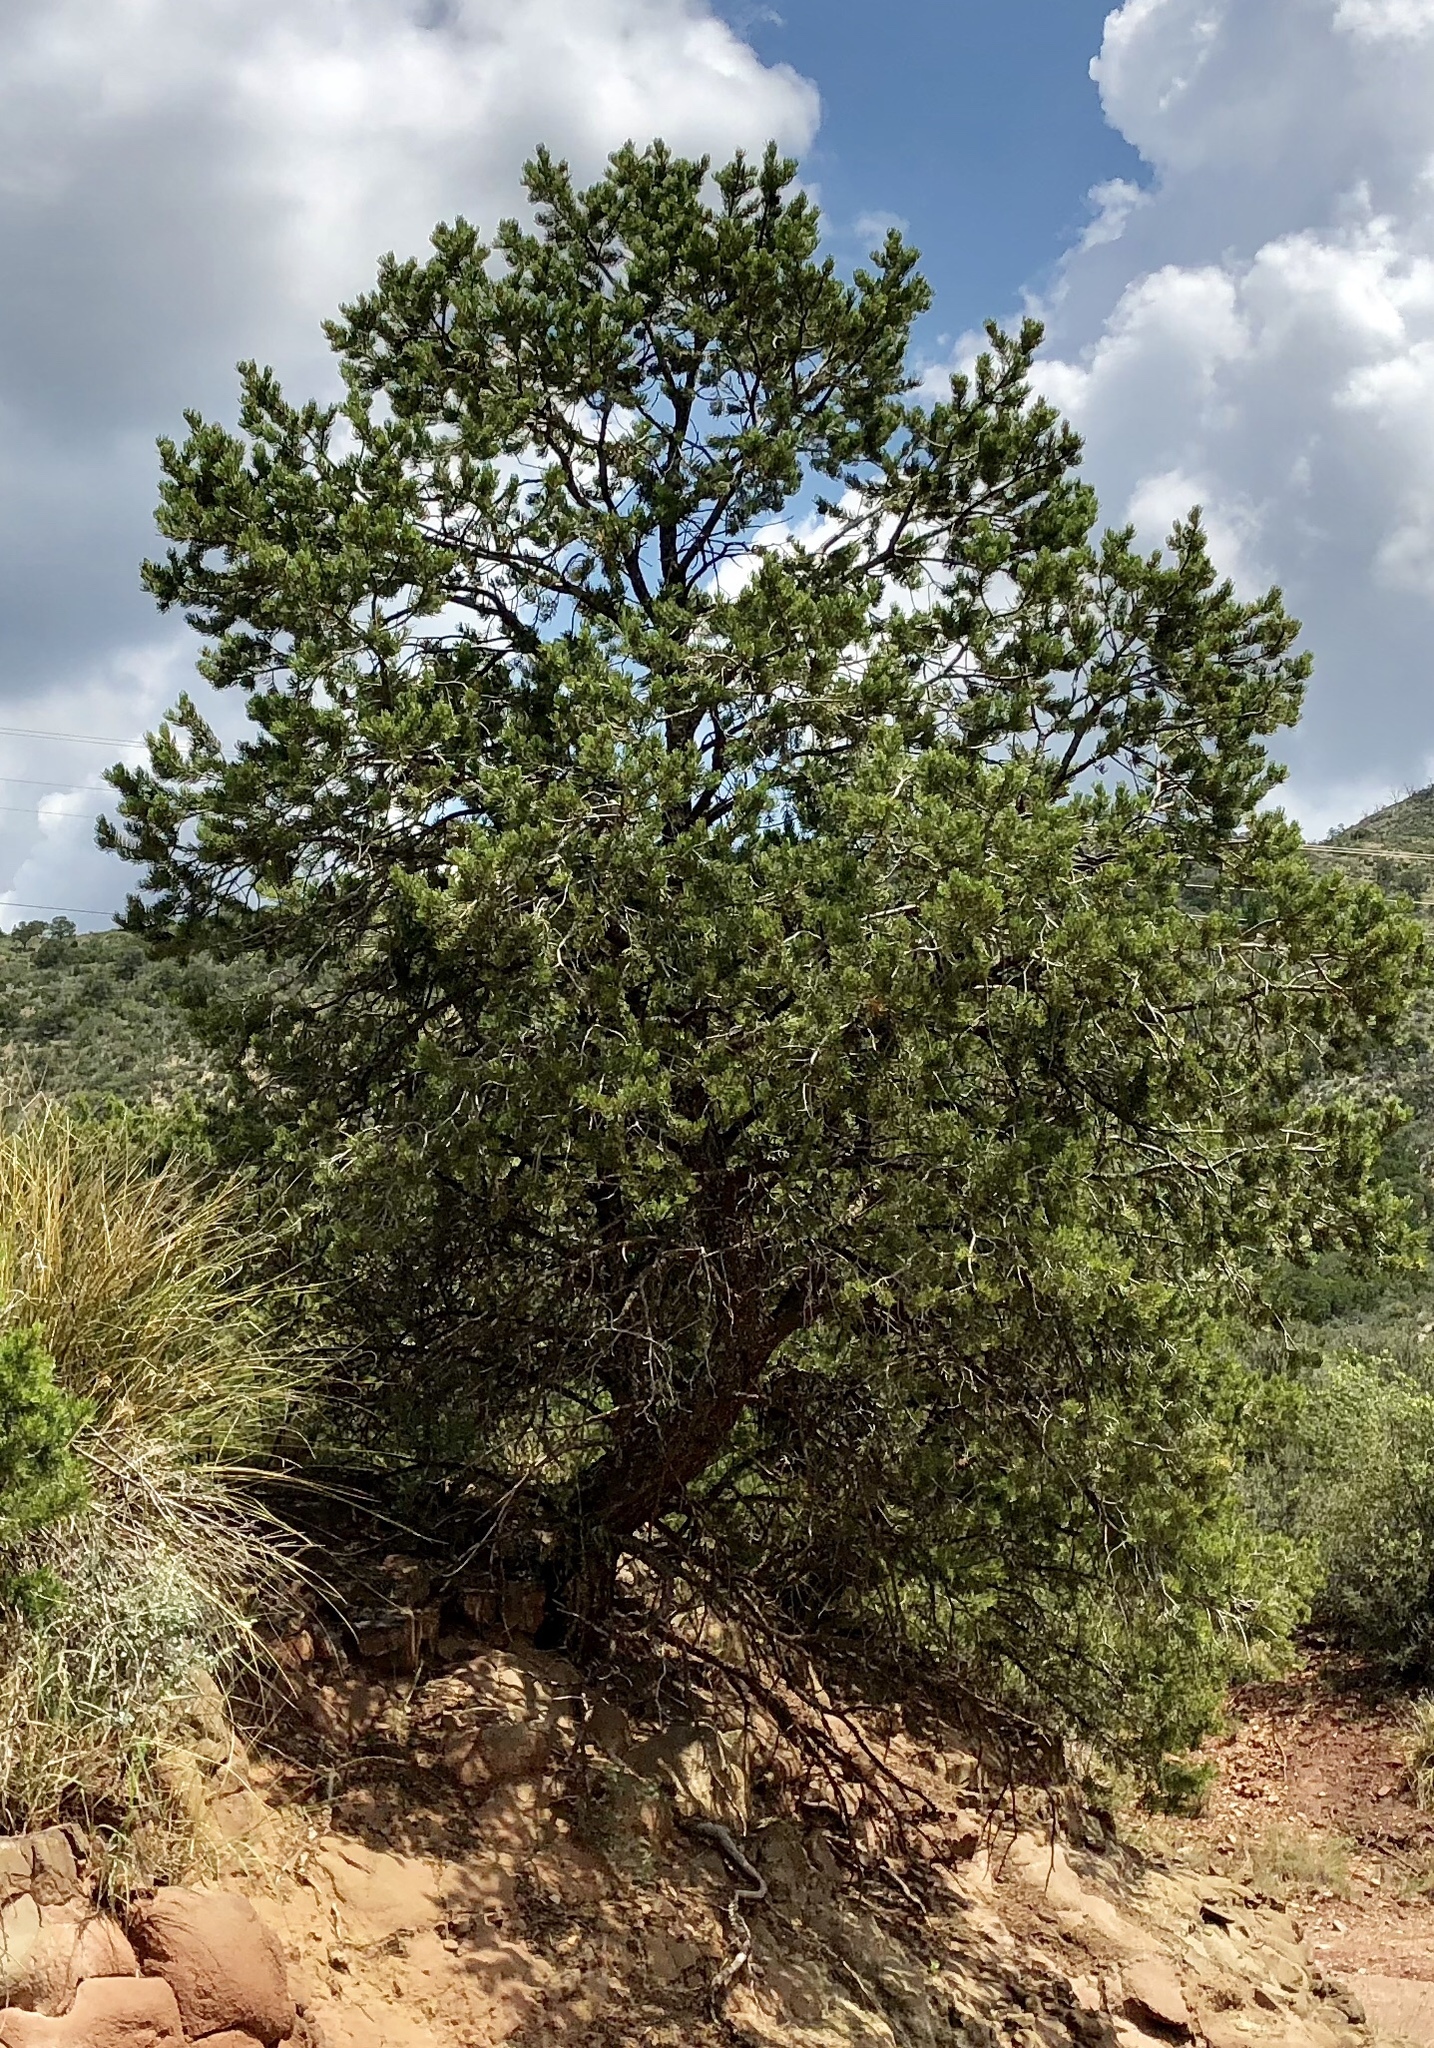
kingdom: Plantae
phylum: Tracheophyta
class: Pinopsida
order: Pinales
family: Pinaceae
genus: Pinus
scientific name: Pinus edulis
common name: Colorado pinyon
